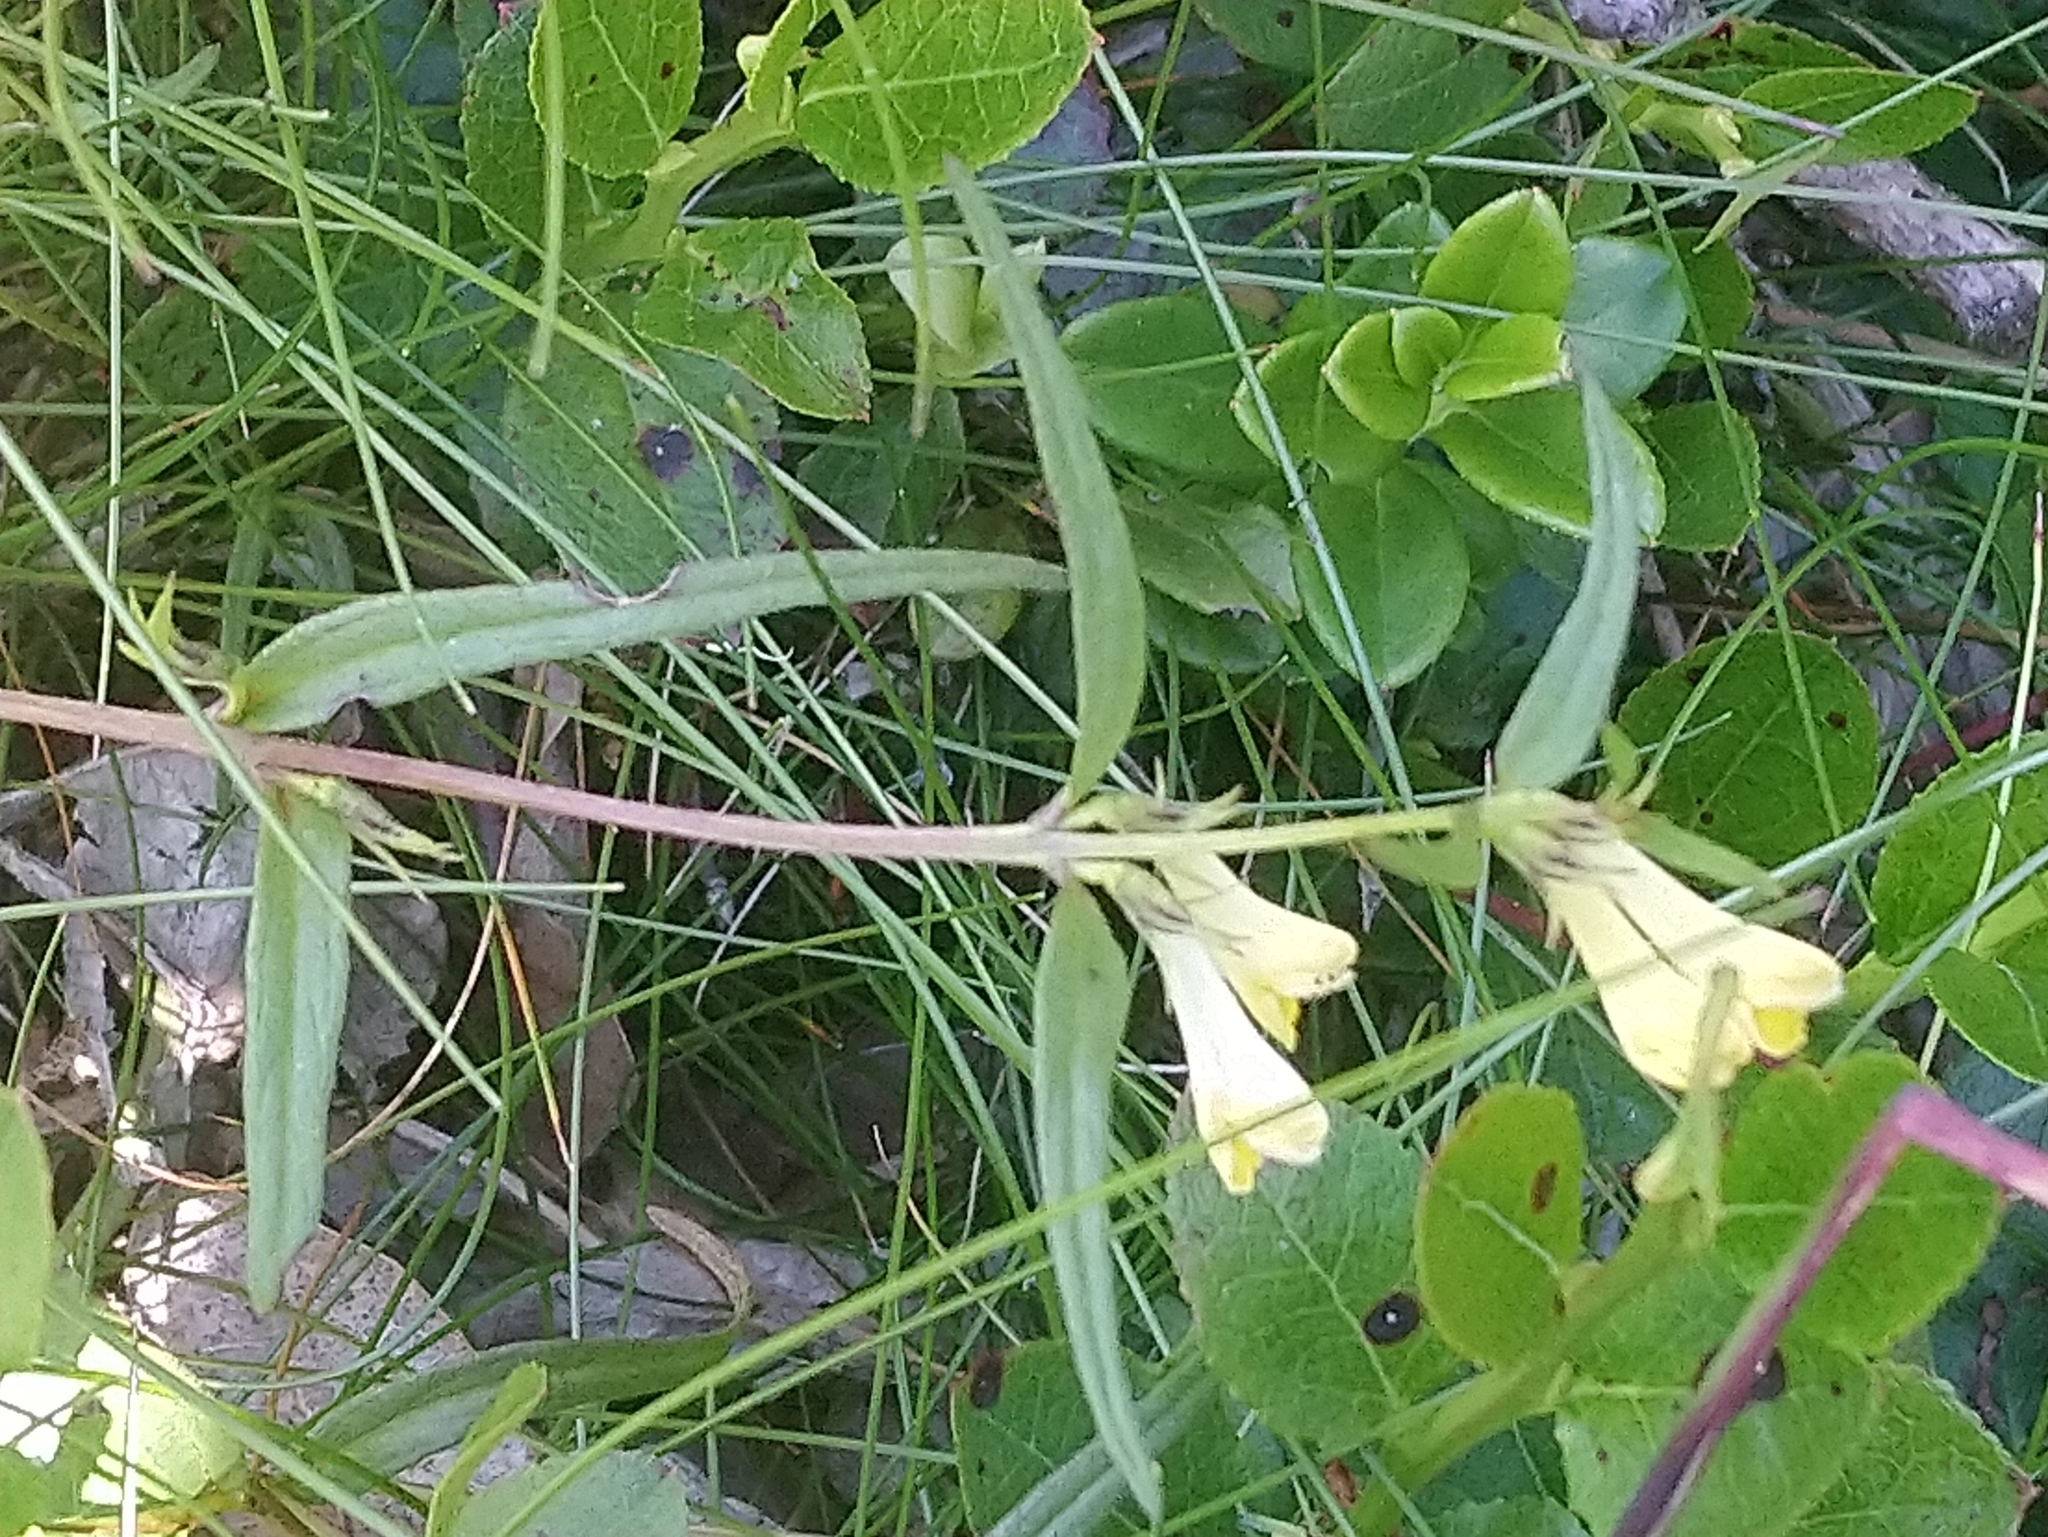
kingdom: Plantae
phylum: Tracheophyta
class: Magnoliopsida
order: Lamiales
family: Orobanchaceae
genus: Melampyrum
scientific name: Melampyrum pratense
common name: Common cow-wheat
